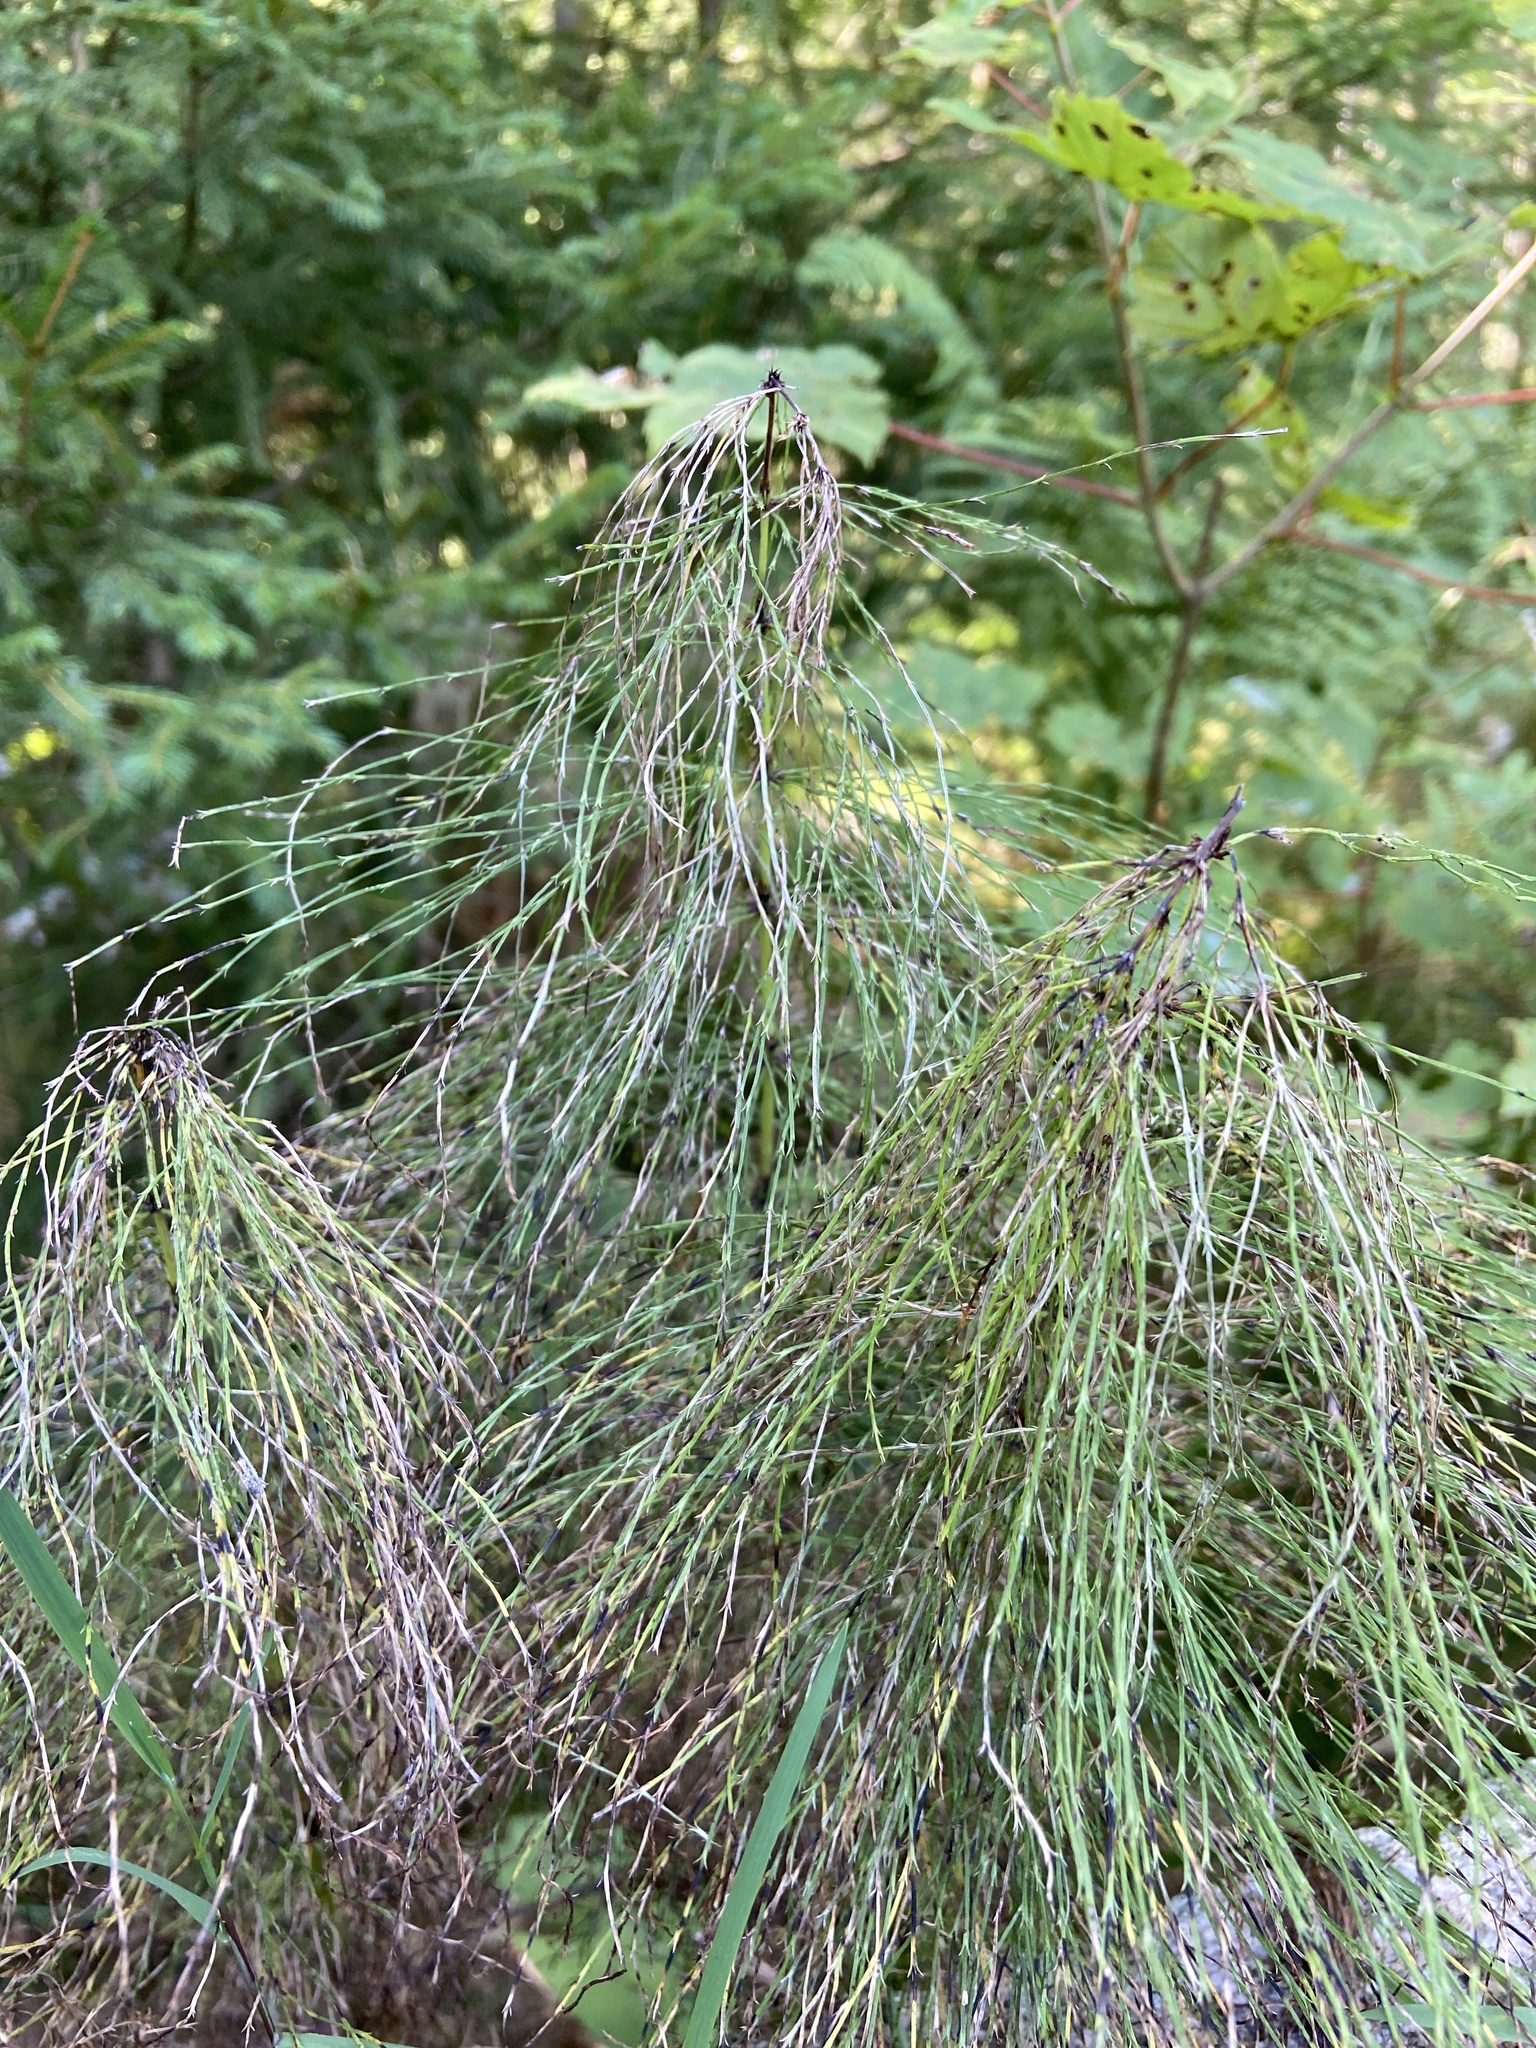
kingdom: Plantae
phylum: Tracheophyta
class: Polypodiopsida
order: Equisetales
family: Equisetaceae
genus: Equisetum
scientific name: Equisetum sylvaticum
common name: Wood horsetail
